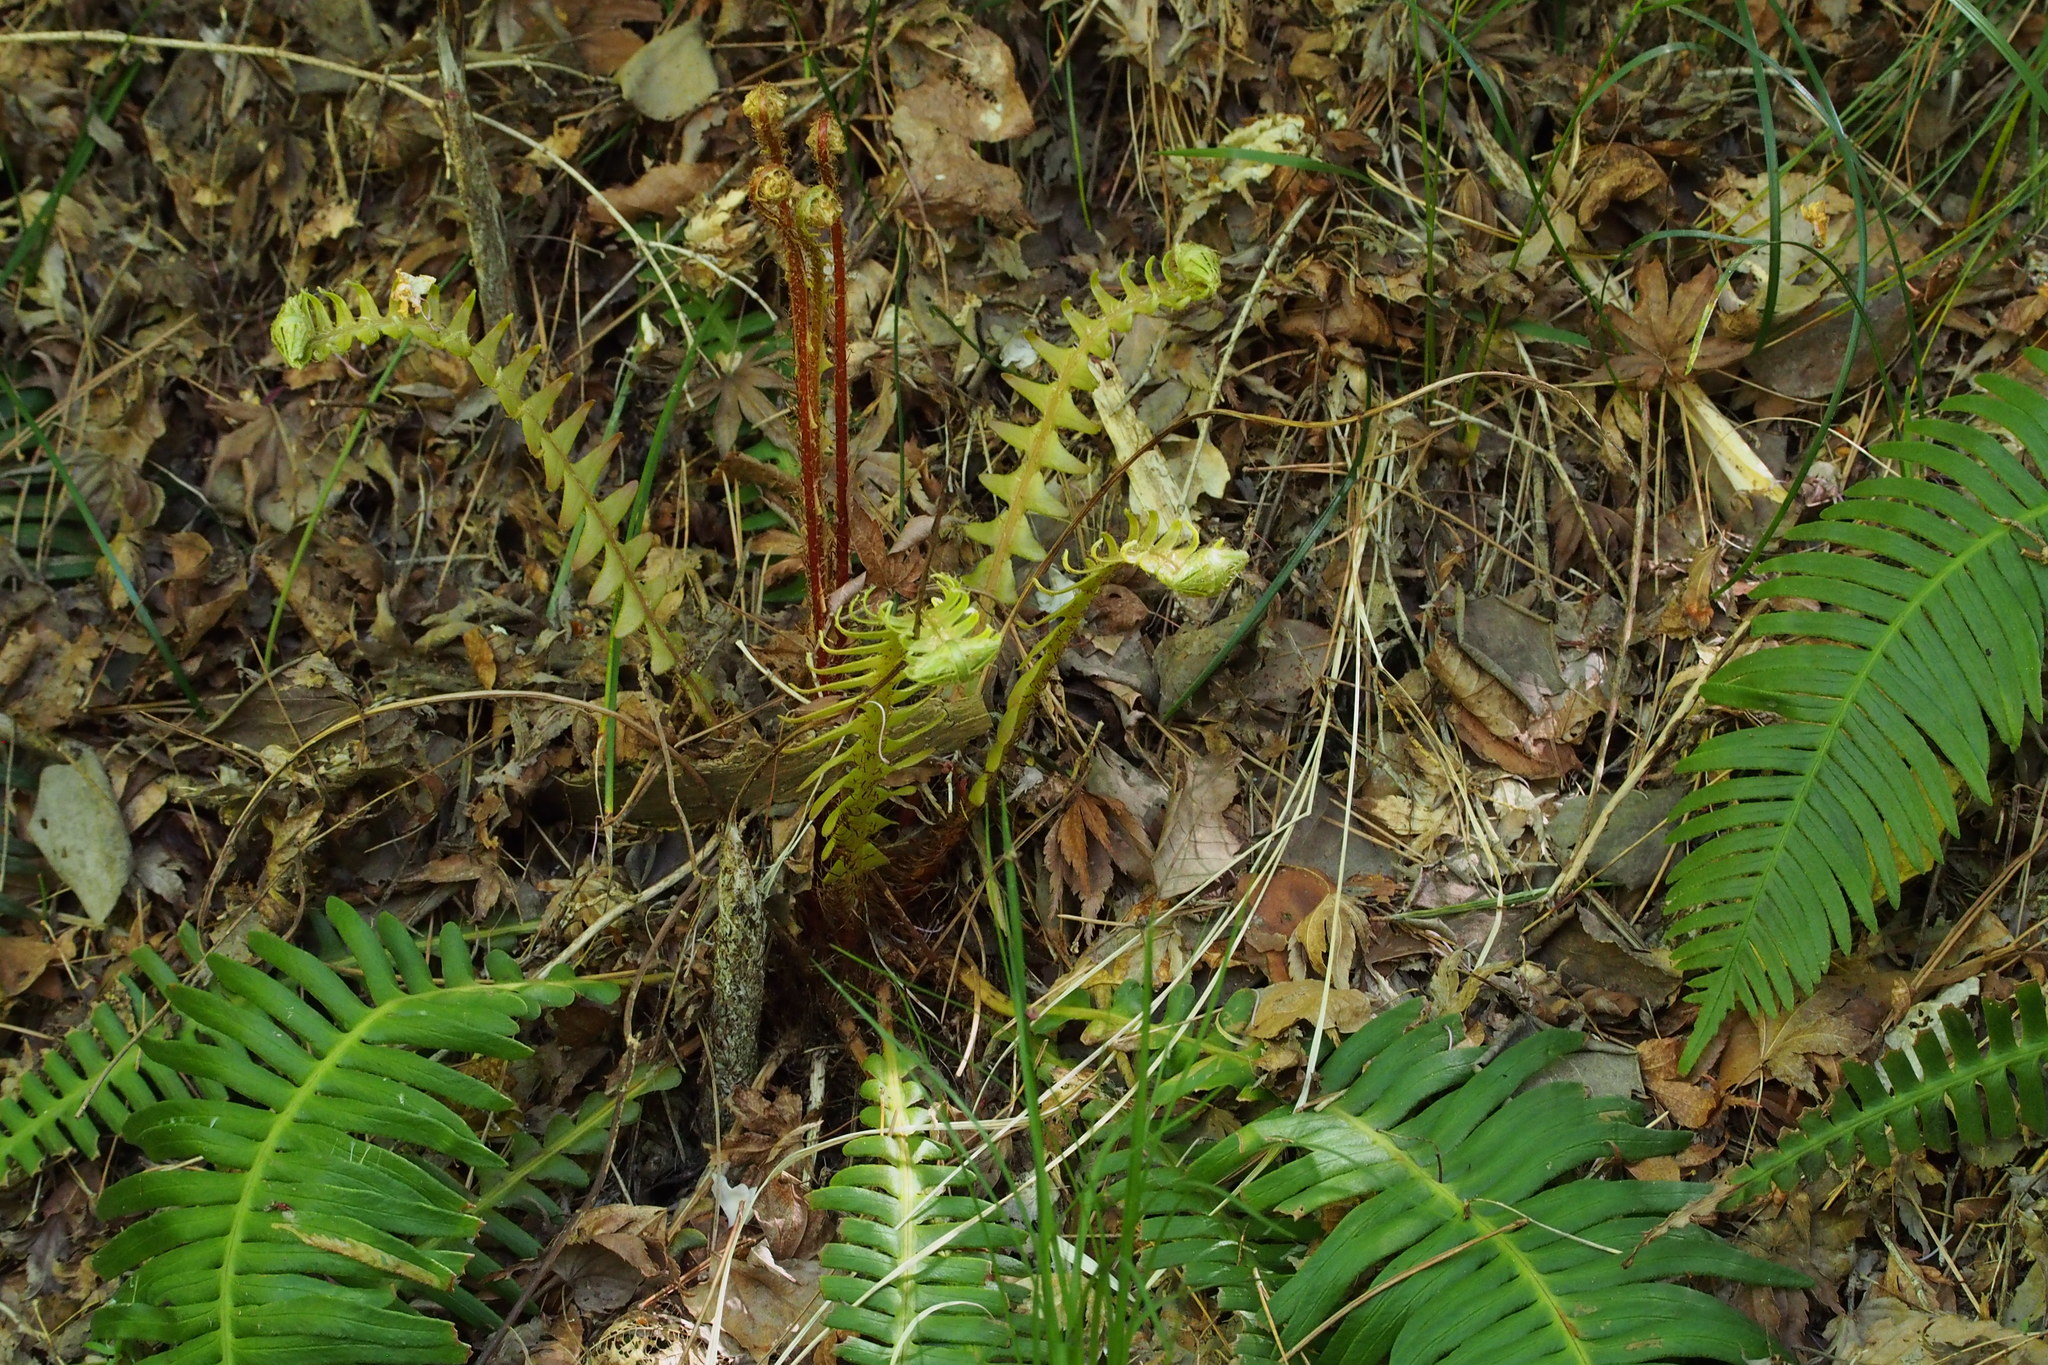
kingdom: Plantae
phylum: Tracheophyta
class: Polypodiopsida
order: Polypodiales
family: Blechnaceae
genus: Spicantopsis
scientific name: Spicantopsis niponica
